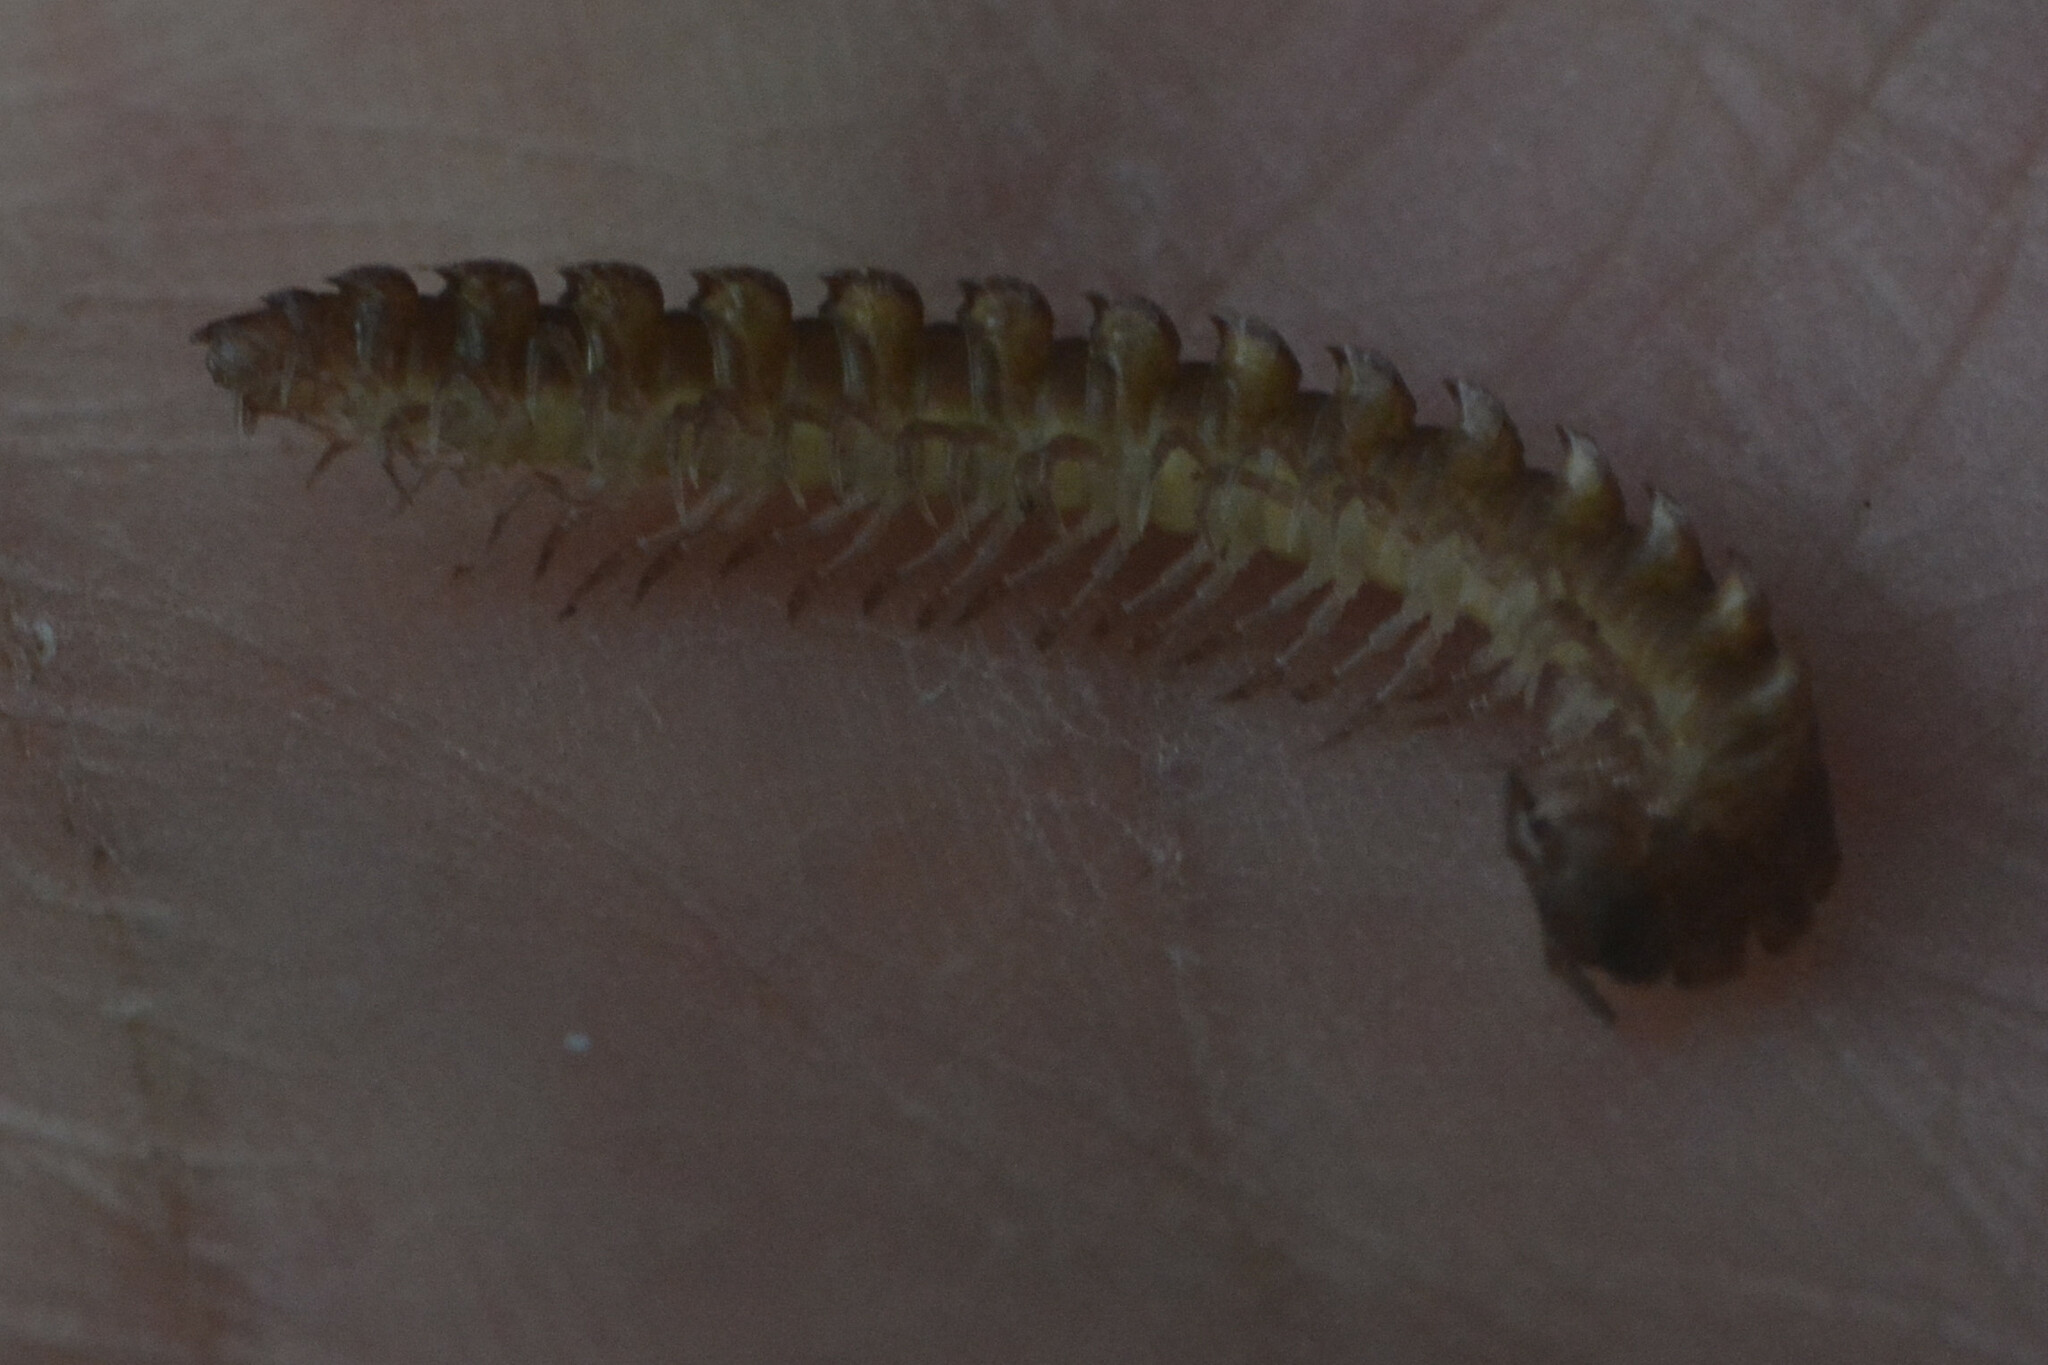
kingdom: Animalia
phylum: Arthropoda
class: Diplopoda
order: Polydesmida
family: Polydesmidae
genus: Polydesmus
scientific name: Polydesmus
